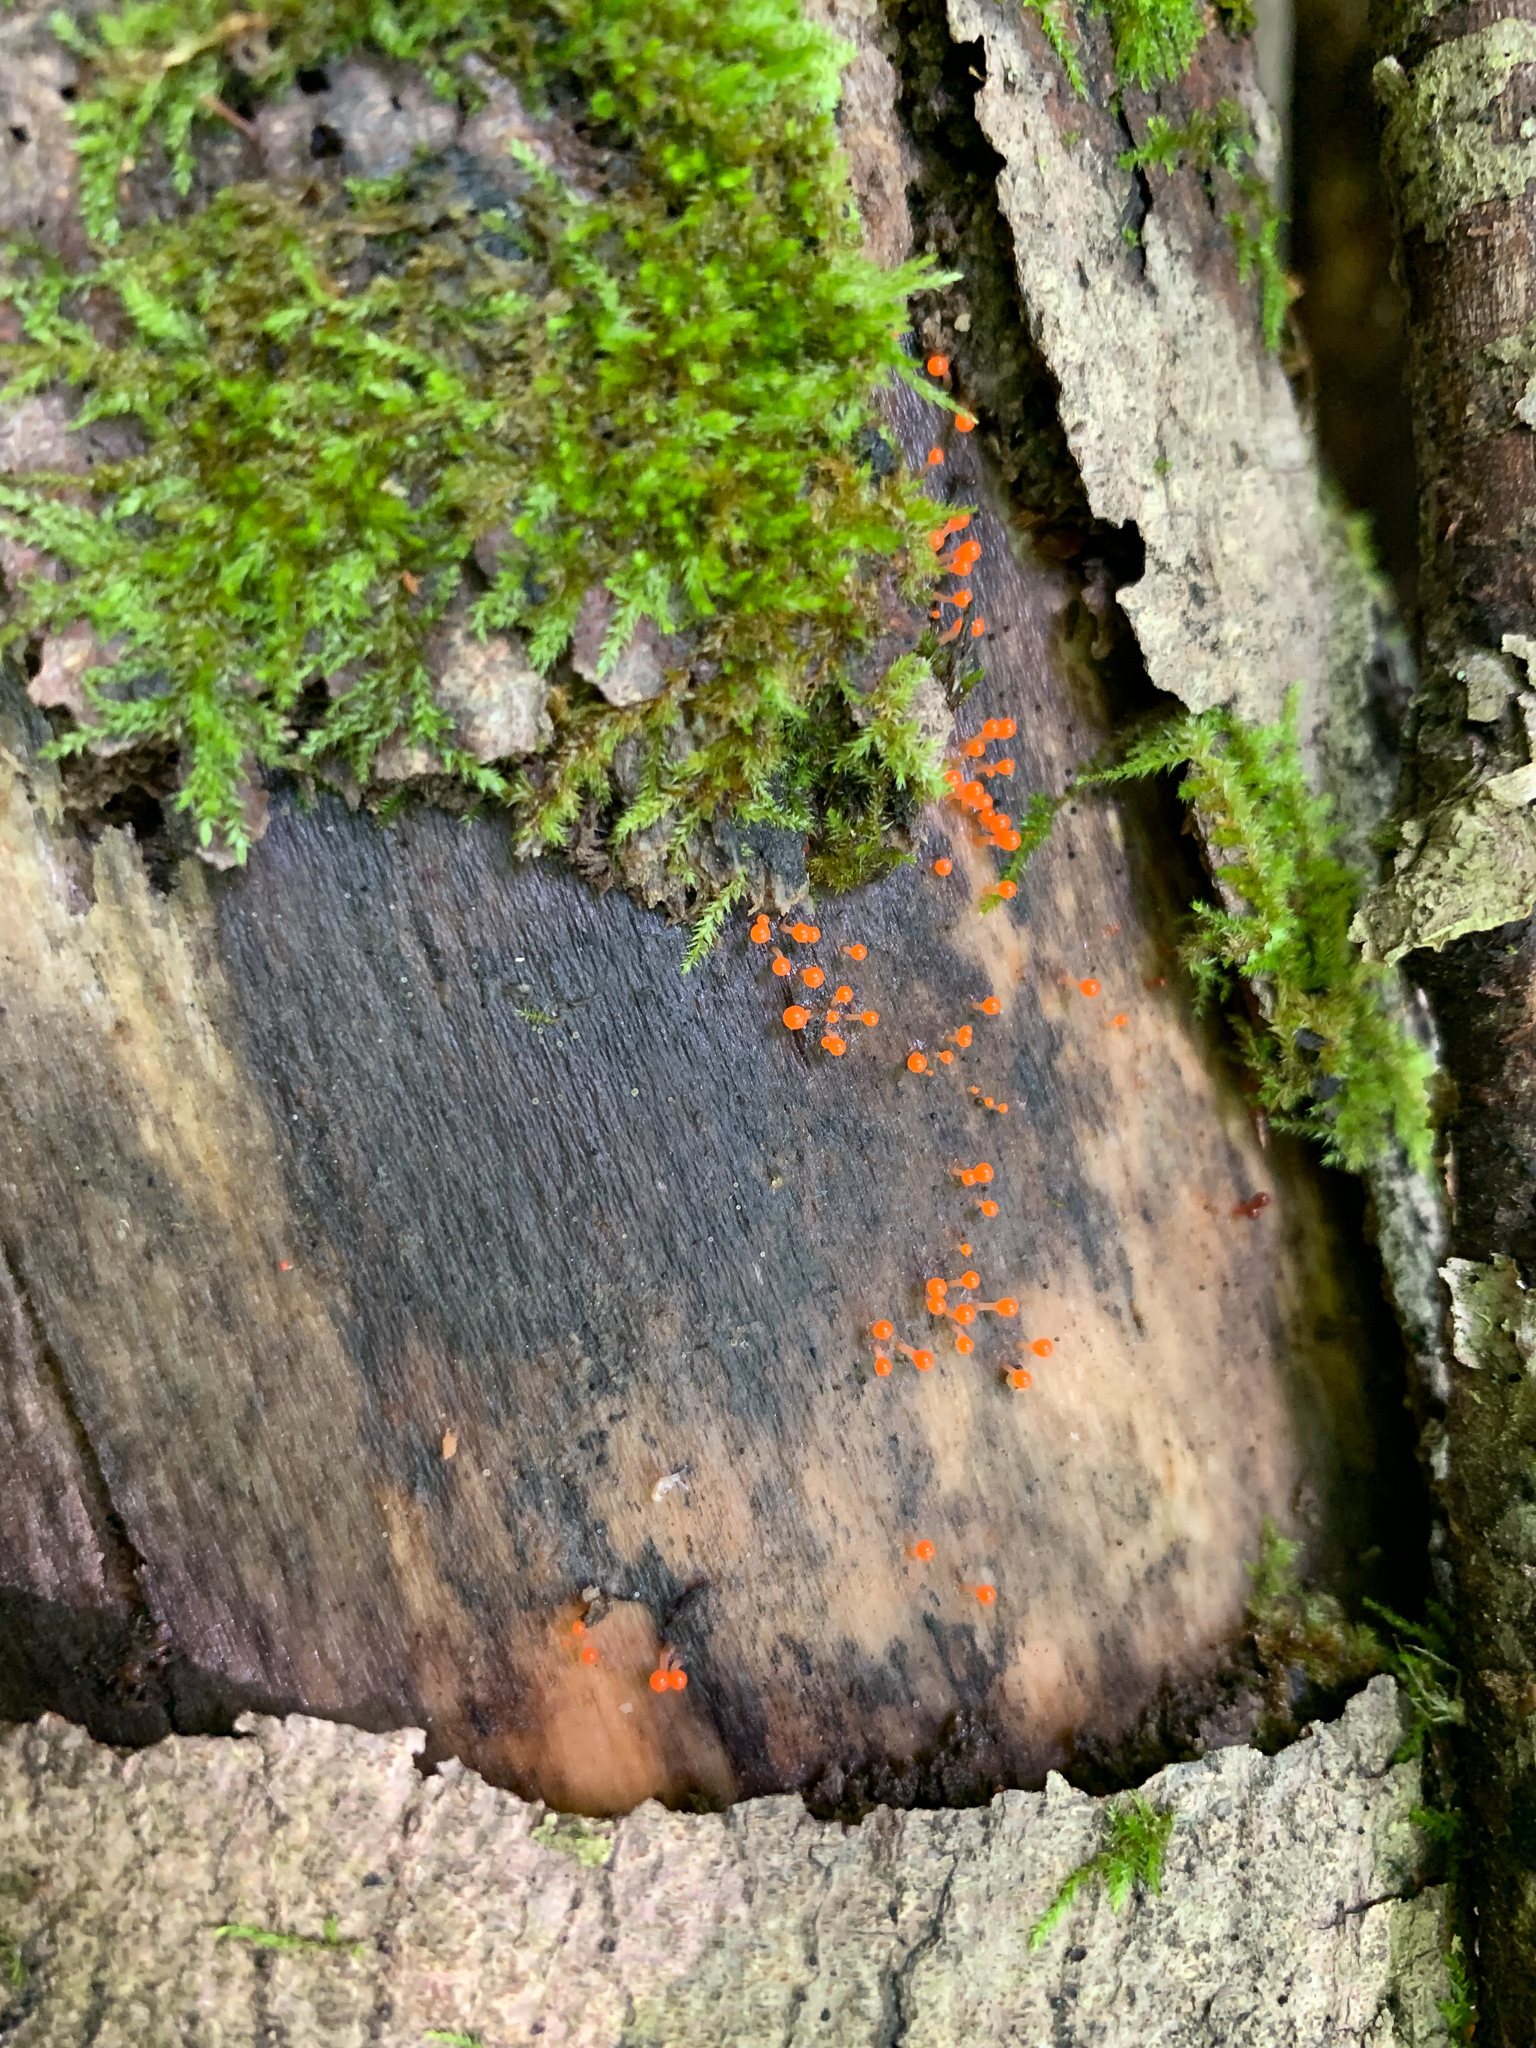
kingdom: Protozoa
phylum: Mycetozoa
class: Myxomycetes
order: Trichiales
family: Arcyriaceae
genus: Hemitrichia
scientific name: Hemitrichia calyculata
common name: Push pin slime mold
